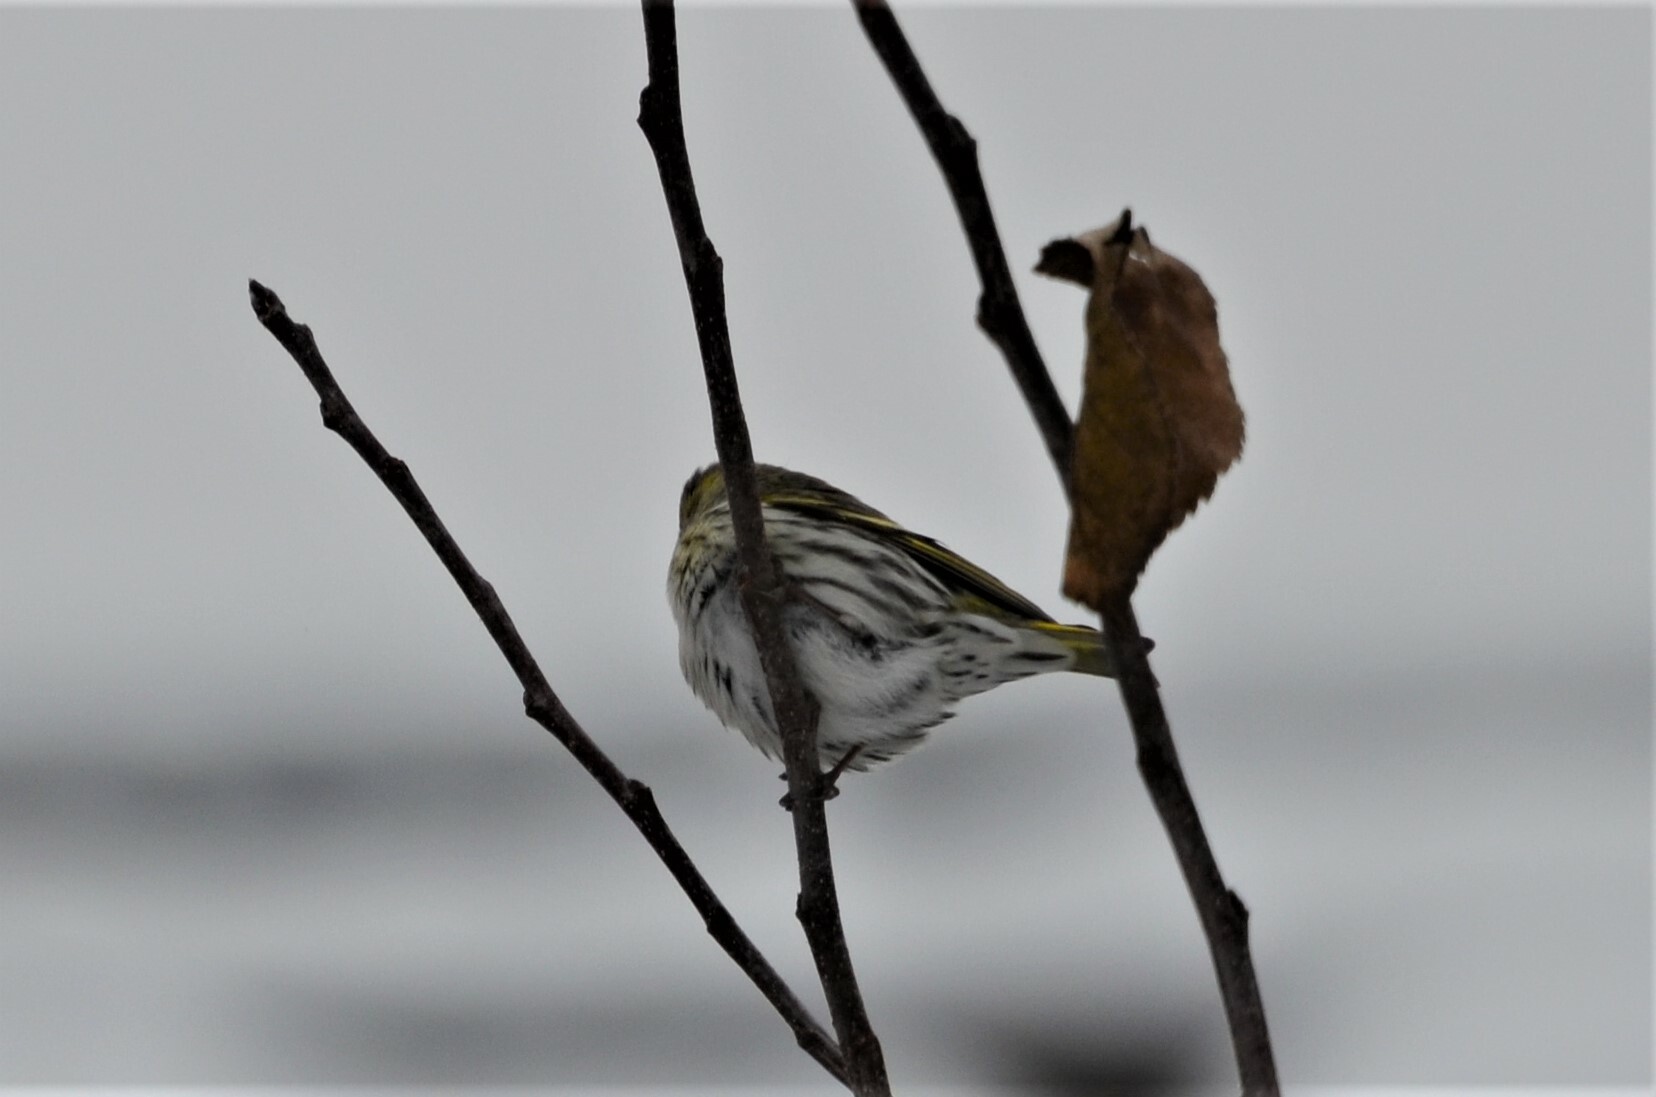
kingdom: Animalia
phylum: Chordata
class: Aves
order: Passeriformes
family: Fringillidae
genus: Spinus
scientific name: Spinus spinus
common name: Eurasian siskin
